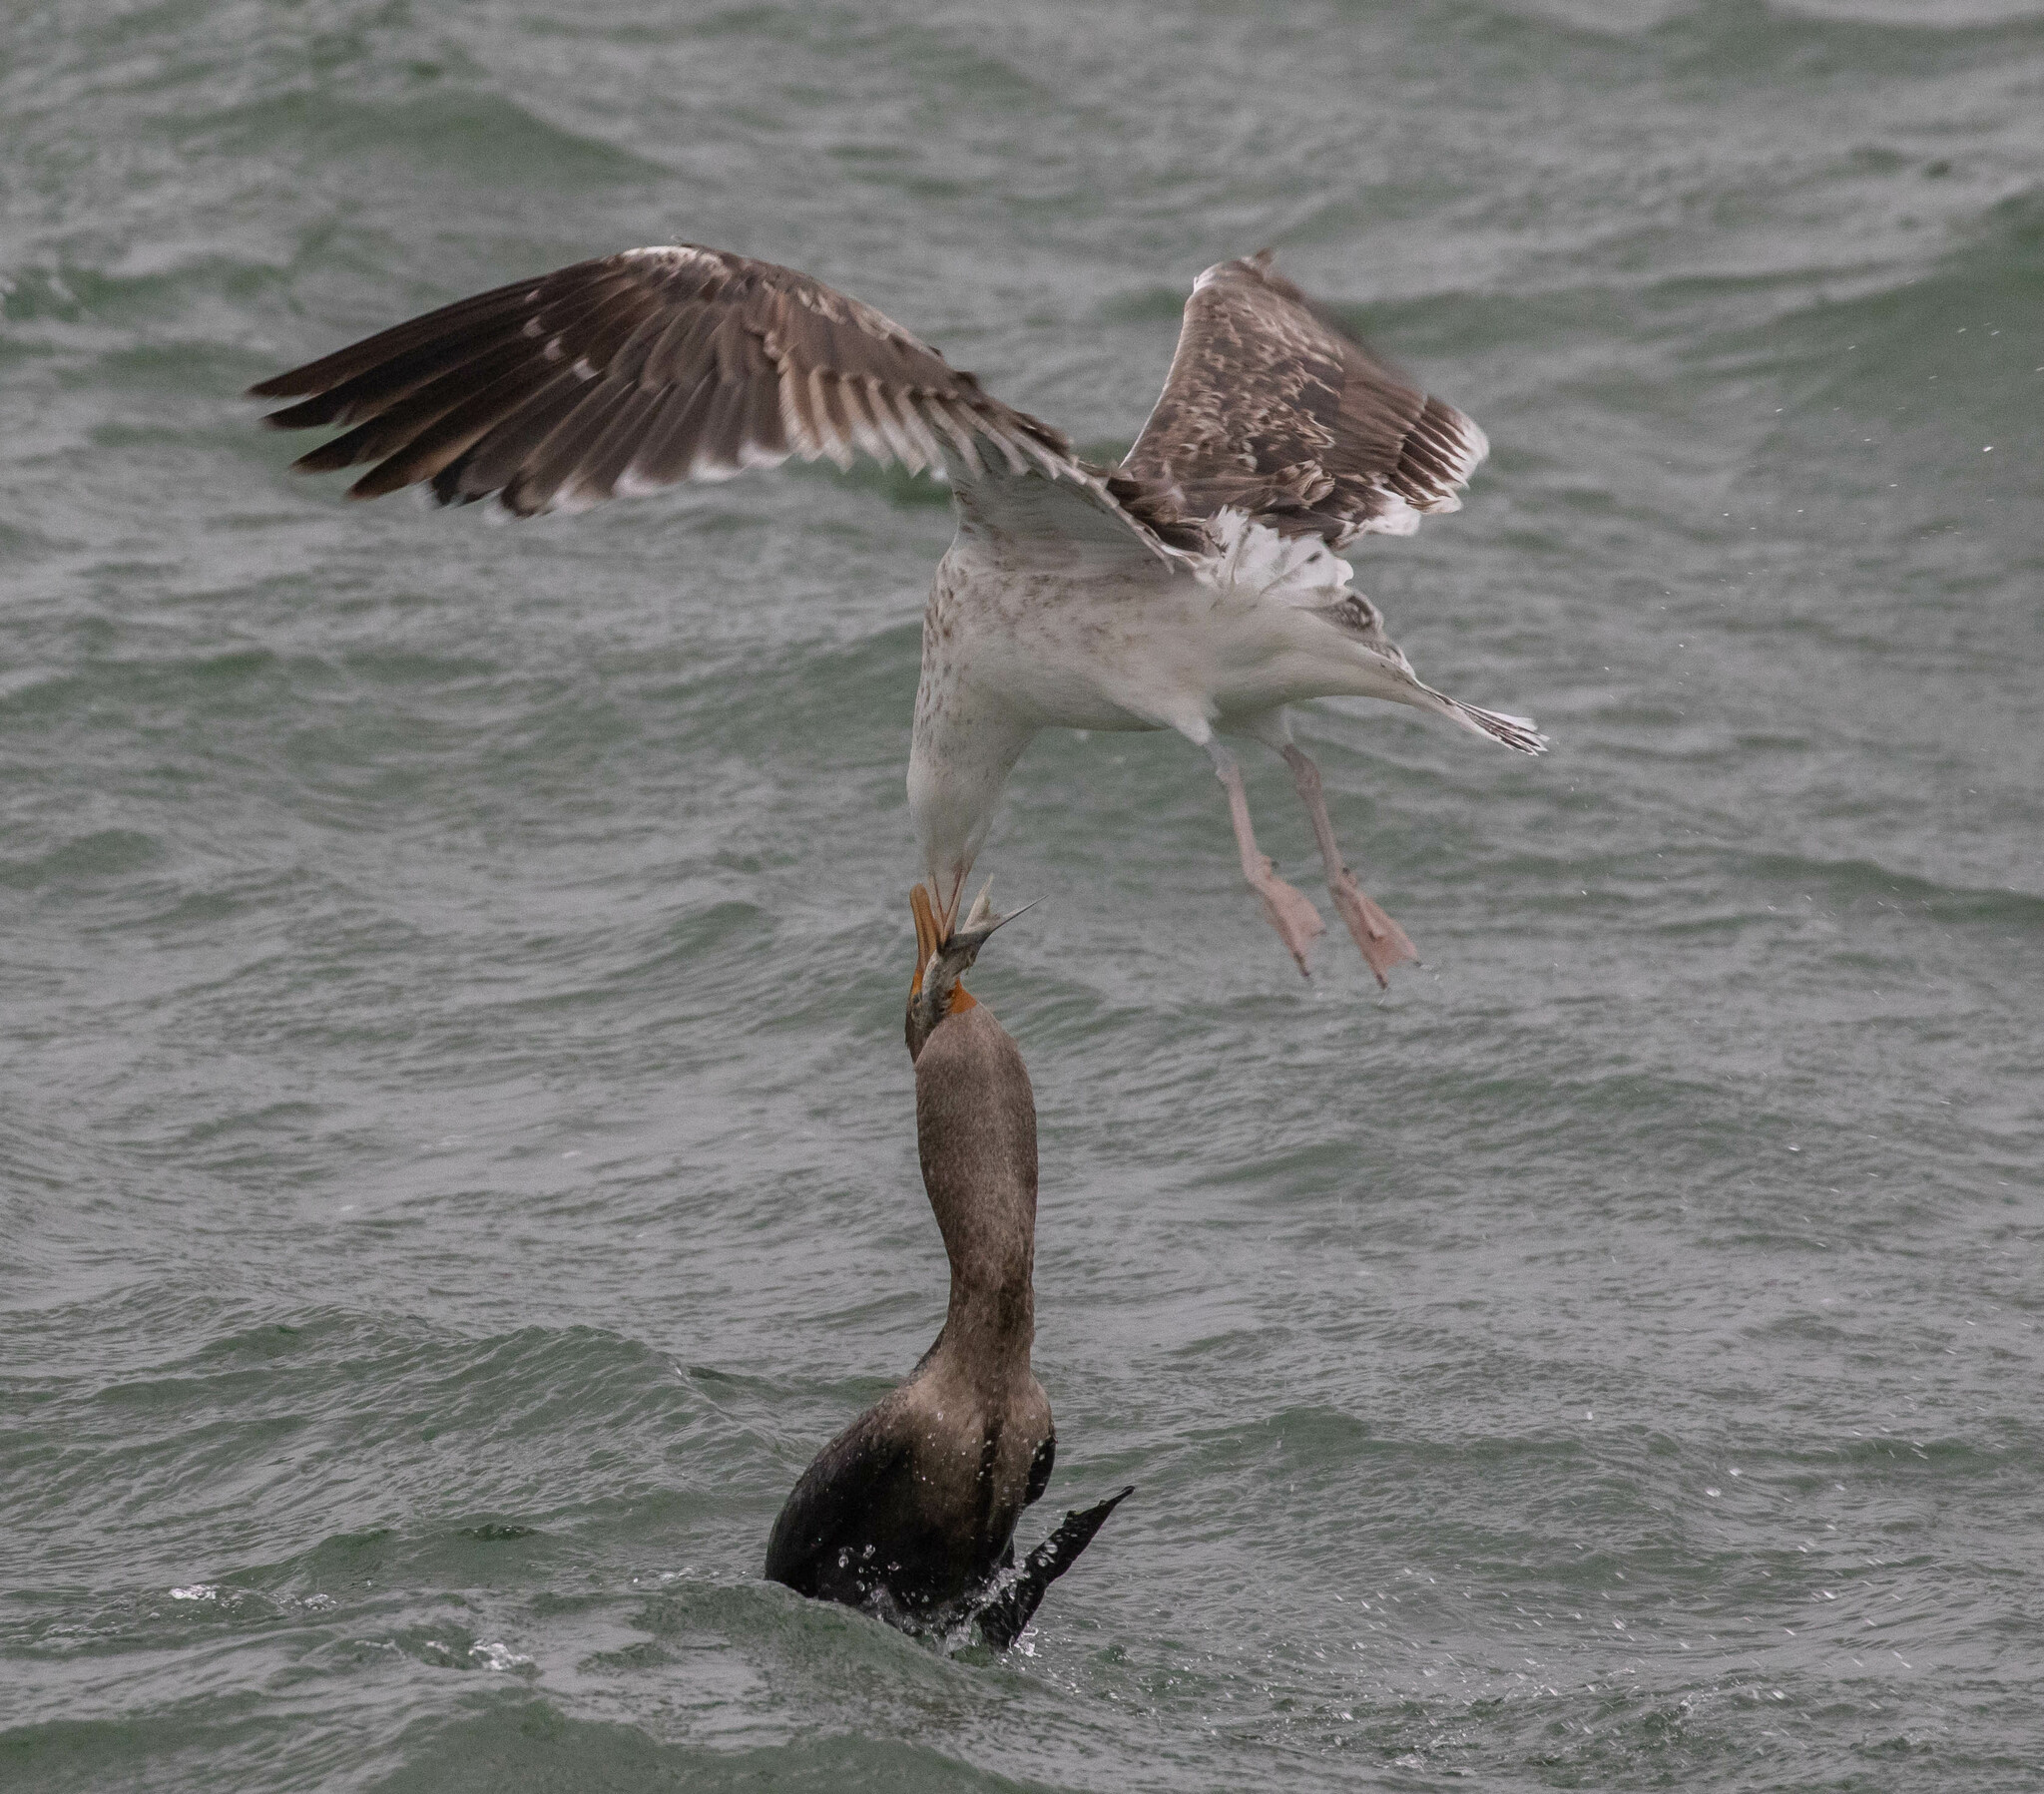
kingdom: Animalia
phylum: Chordata
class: Aves
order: Charadriiformes
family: Laridae
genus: Larus
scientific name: Larus argentatus
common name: Herring gull
